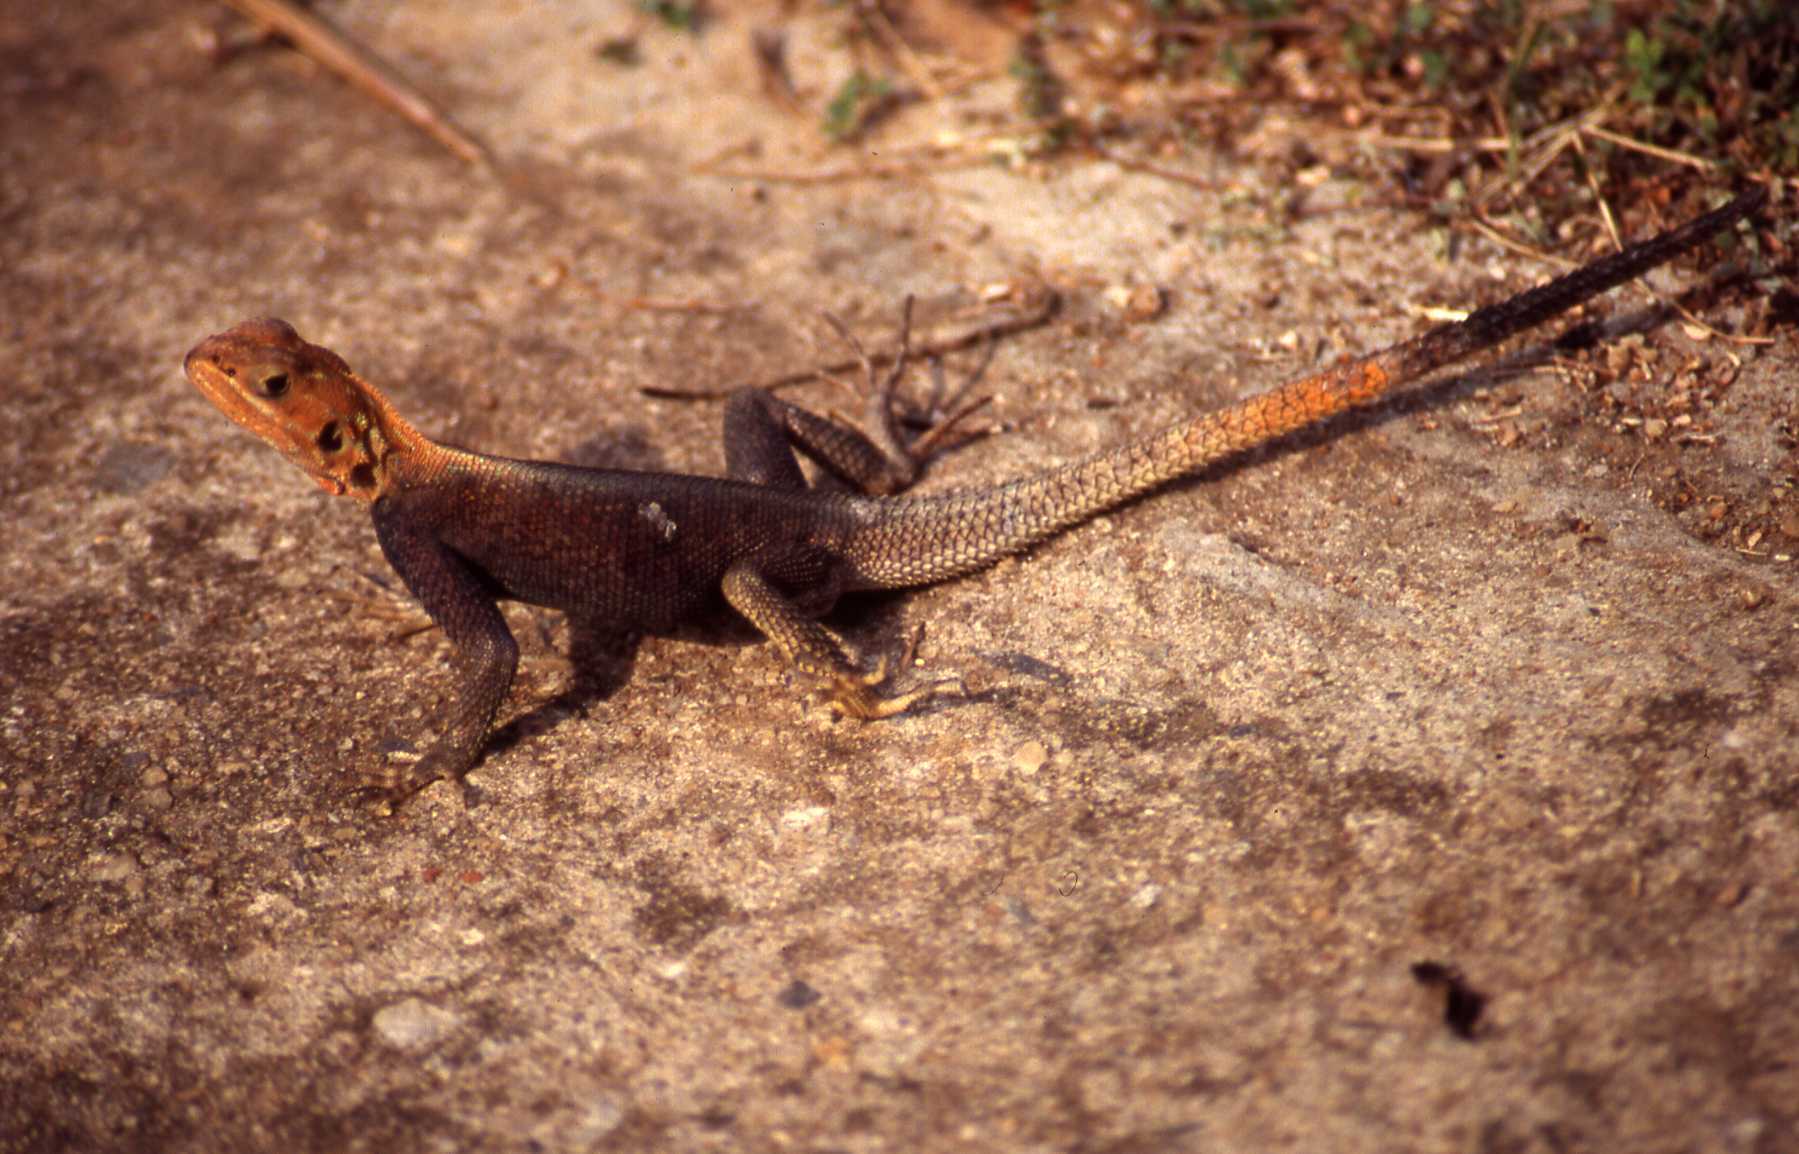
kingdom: Animalia
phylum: Chordata
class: Squamata
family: Agamidae
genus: Agama
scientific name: Agama agama
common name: Common agama
